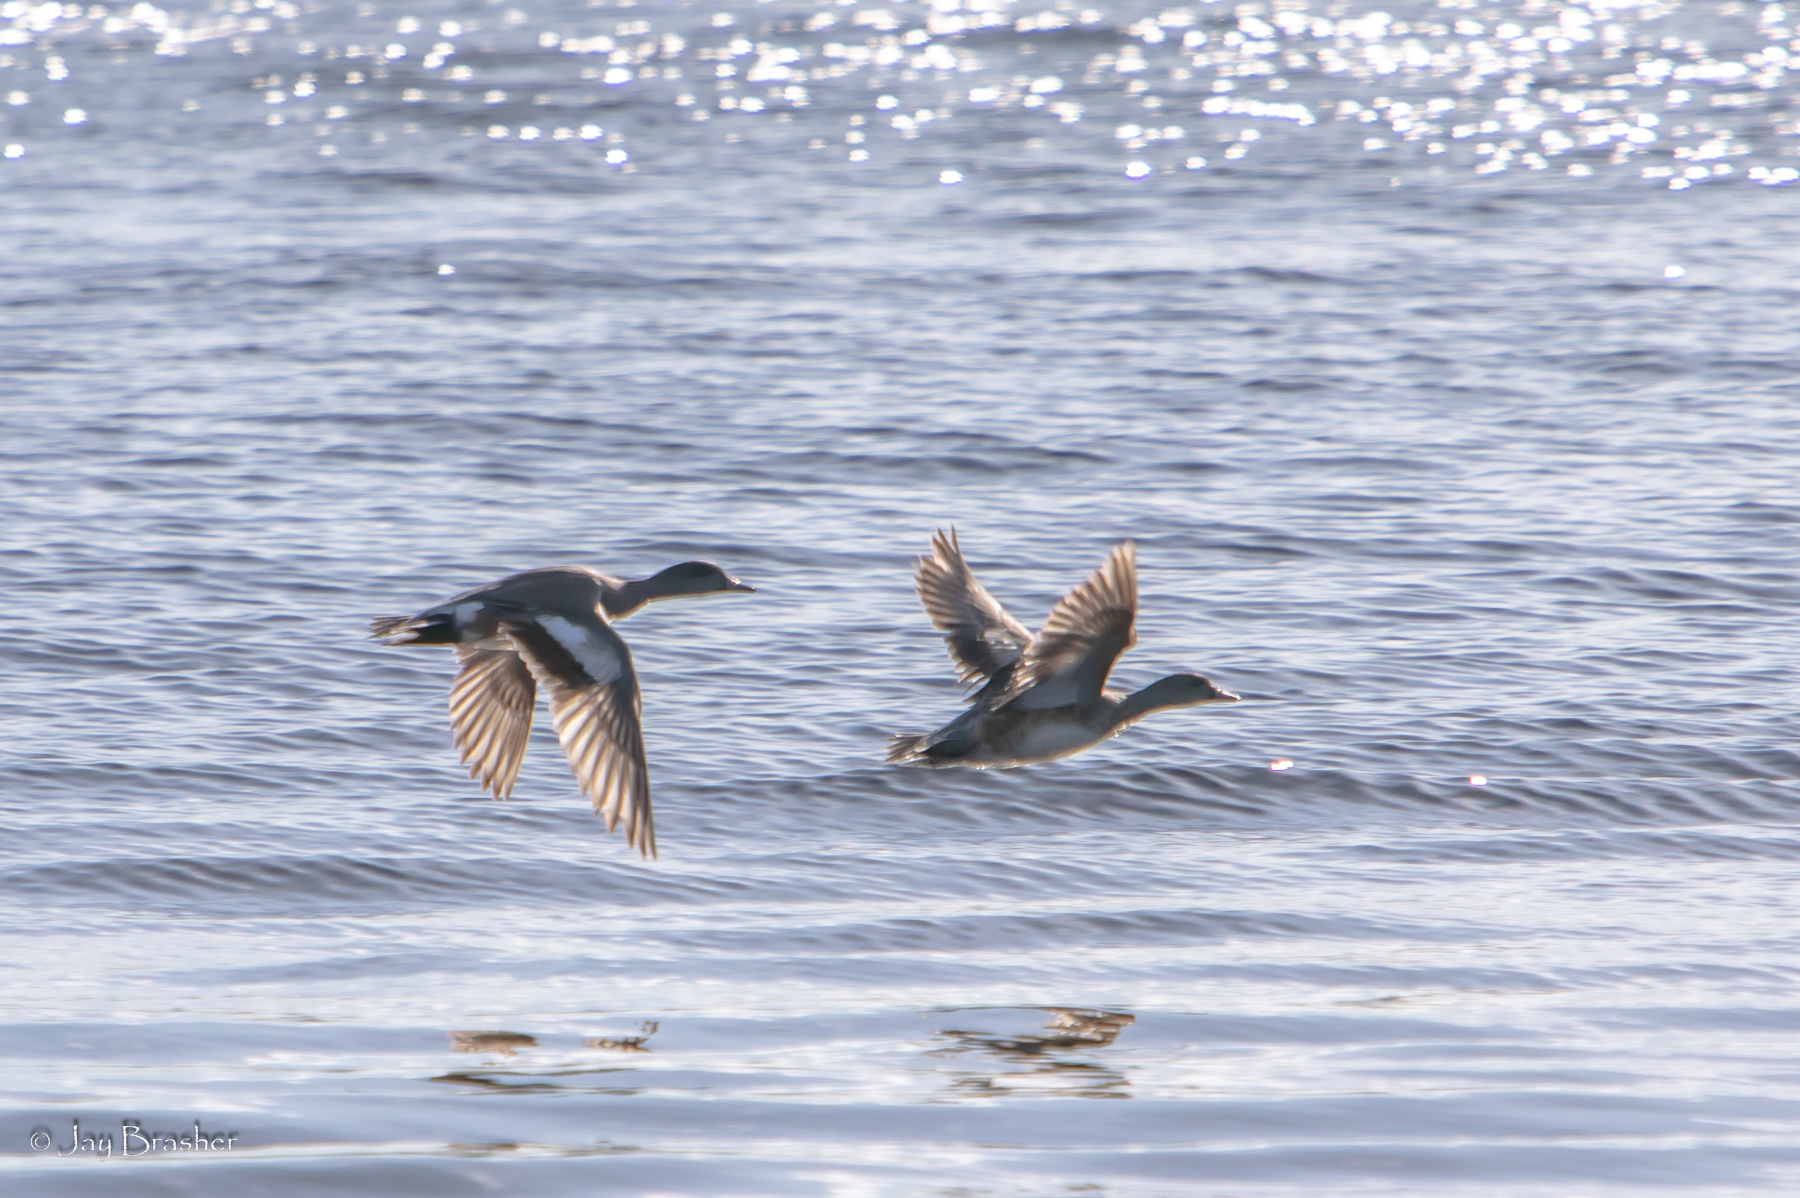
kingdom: Animalia
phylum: Chordata
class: Aves
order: Anseriformes
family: Anatidae
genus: Mareca
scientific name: Mareca americana
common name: American wigeon
